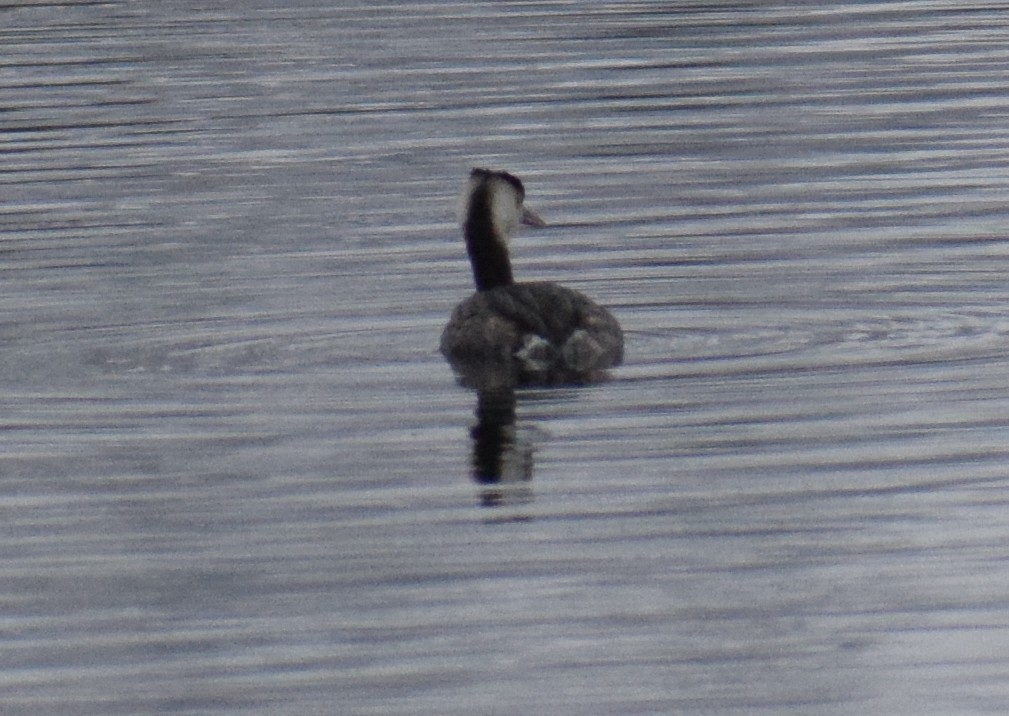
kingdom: Animalia
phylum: Chordata
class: Aves
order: Podicipediformes
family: Podicipedidae
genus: Podiceps
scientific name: Podiceps cristatus
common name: Great crested grebe
